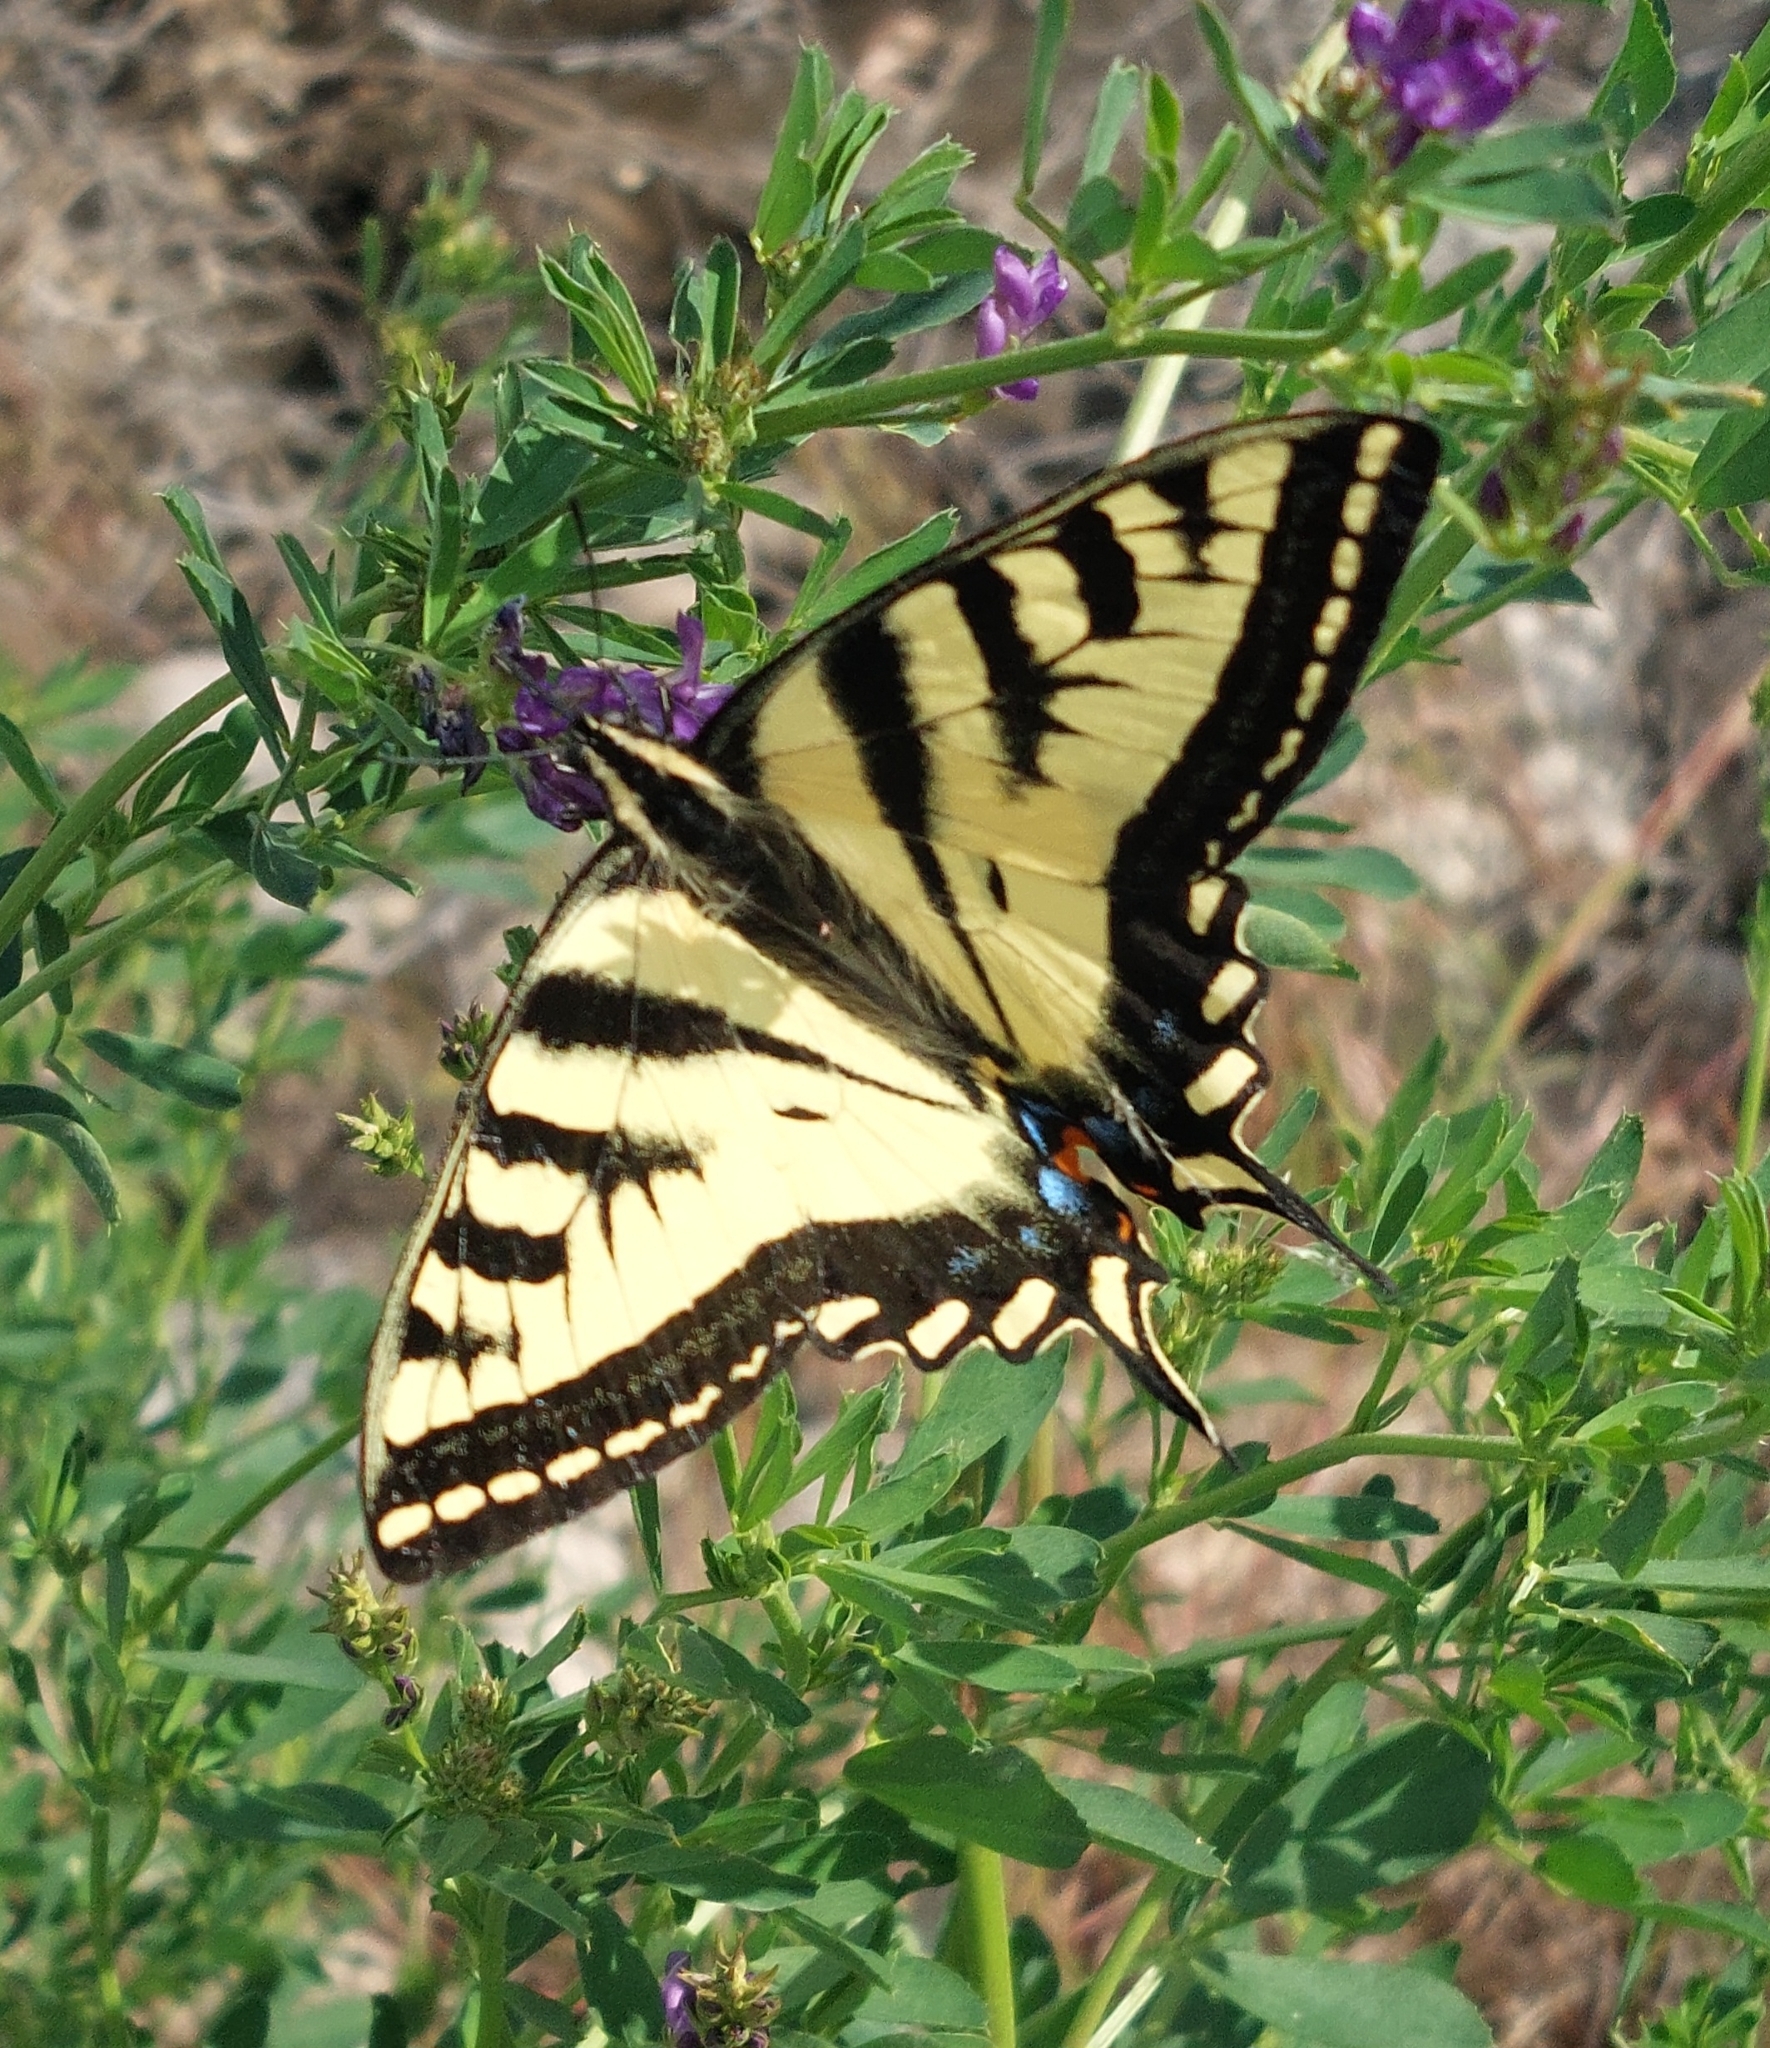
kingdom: Animalia
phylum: Arthropoda
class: Insecta
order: Lepidoptera
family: Papilionidae
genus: Papilio
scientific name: Papilio rutulus
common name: Western tiger swallowtail
